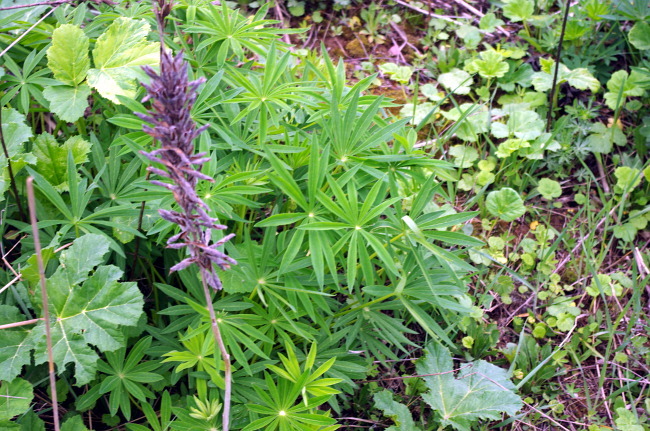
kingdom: Plantae
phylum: Tracheophyta
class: Magnoliopsida
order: Fabales
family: Fabaceae
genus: Lupinus
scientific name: Lupinus polyphyllus
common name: Garden lupin
